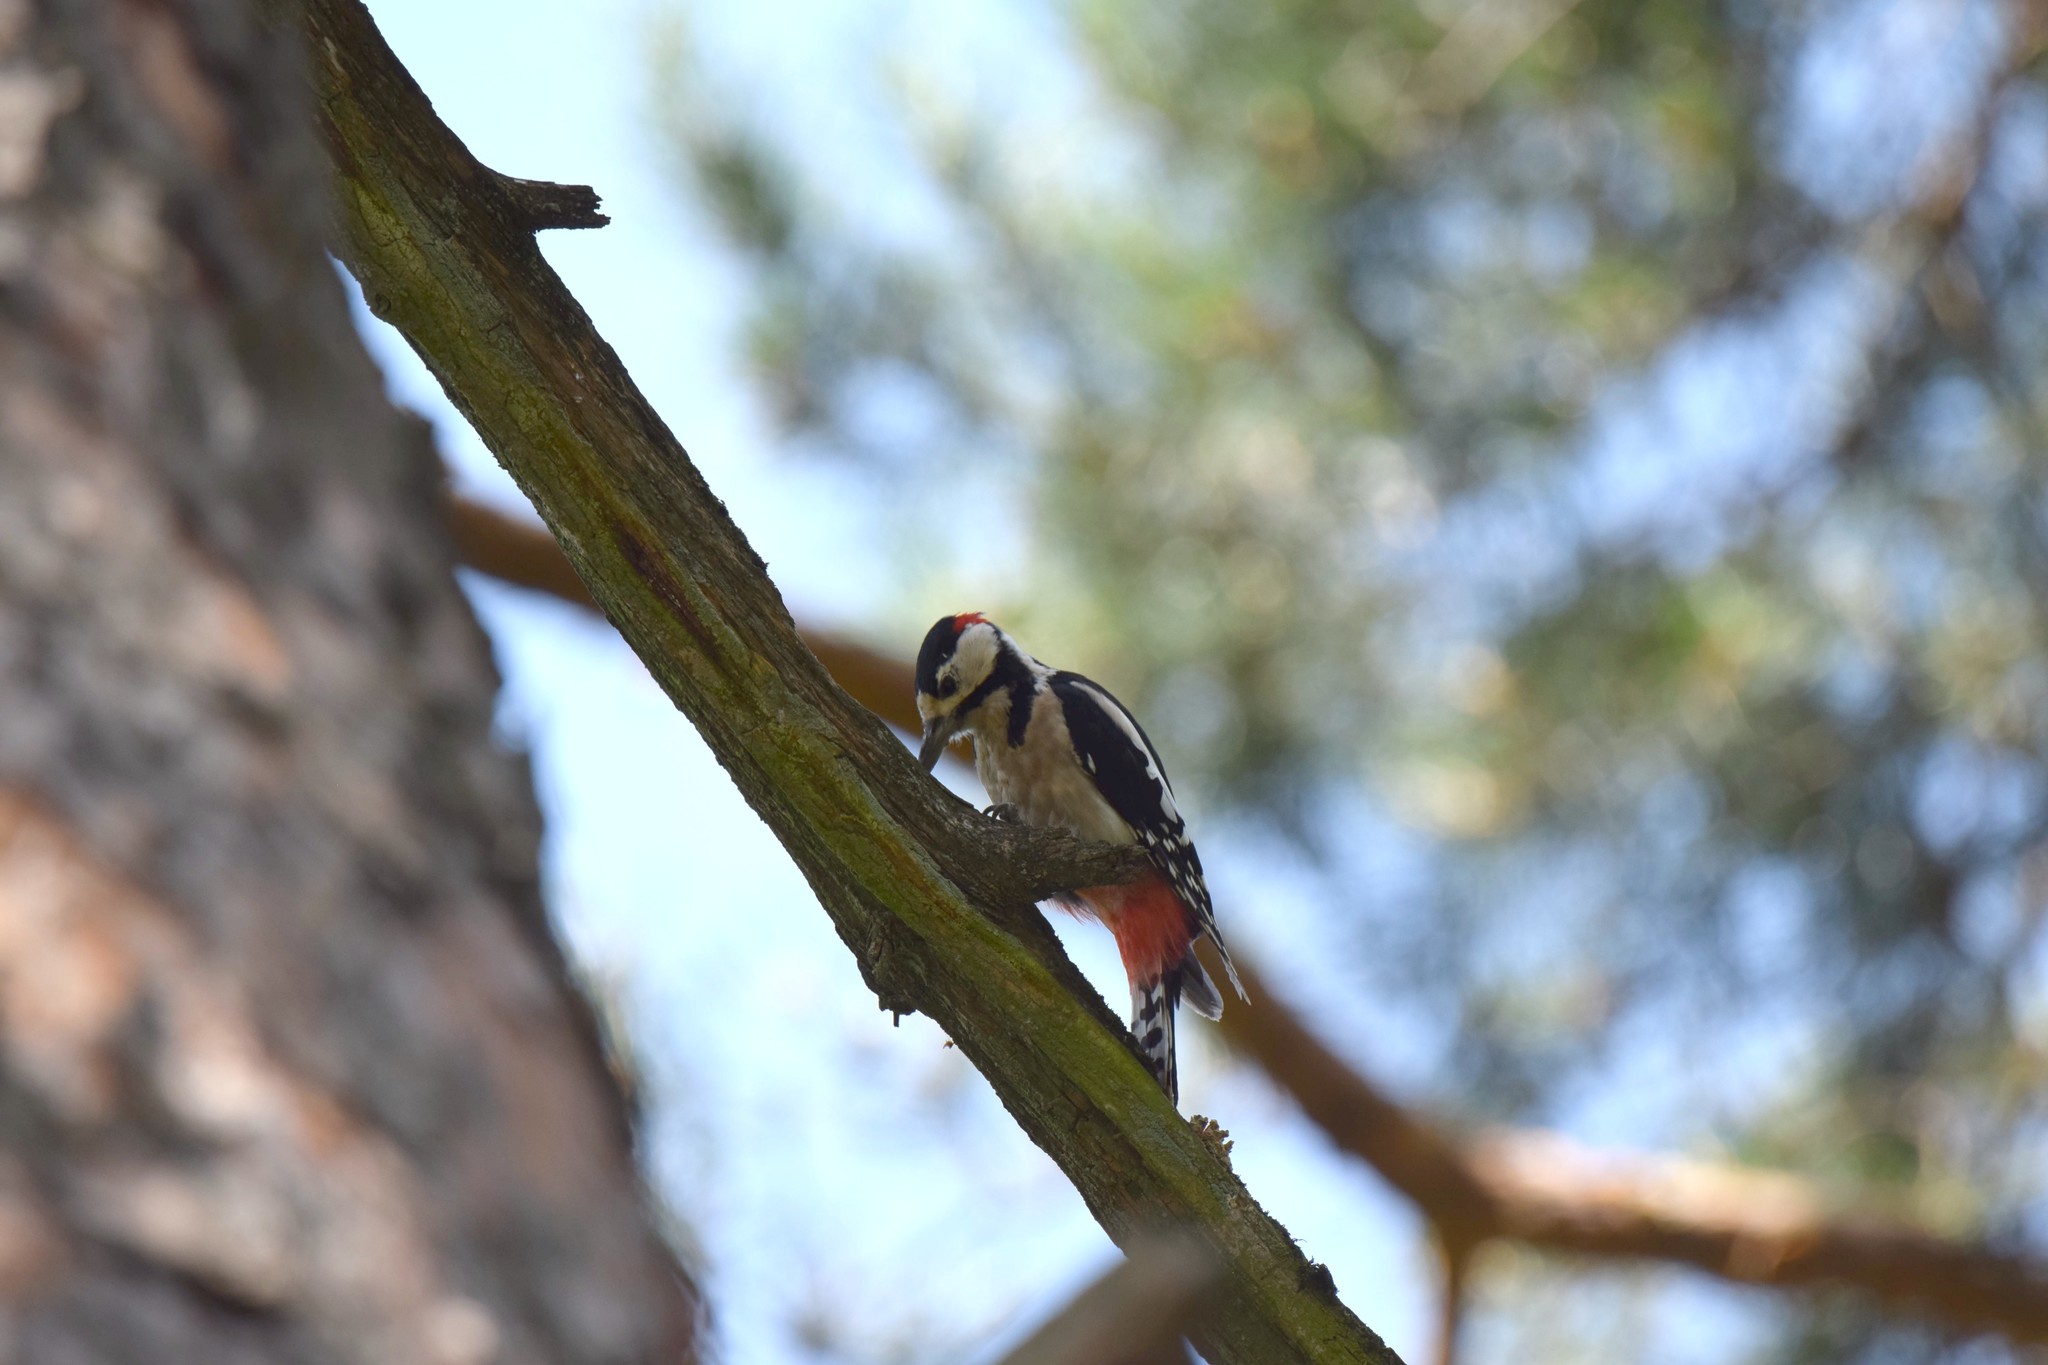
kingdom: Animalia
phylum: Chordata
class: Aves
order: Piciformes
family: Picidae
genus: Dendrocopos
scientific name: Dendrocopos major
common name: Great spotted woodpecker
